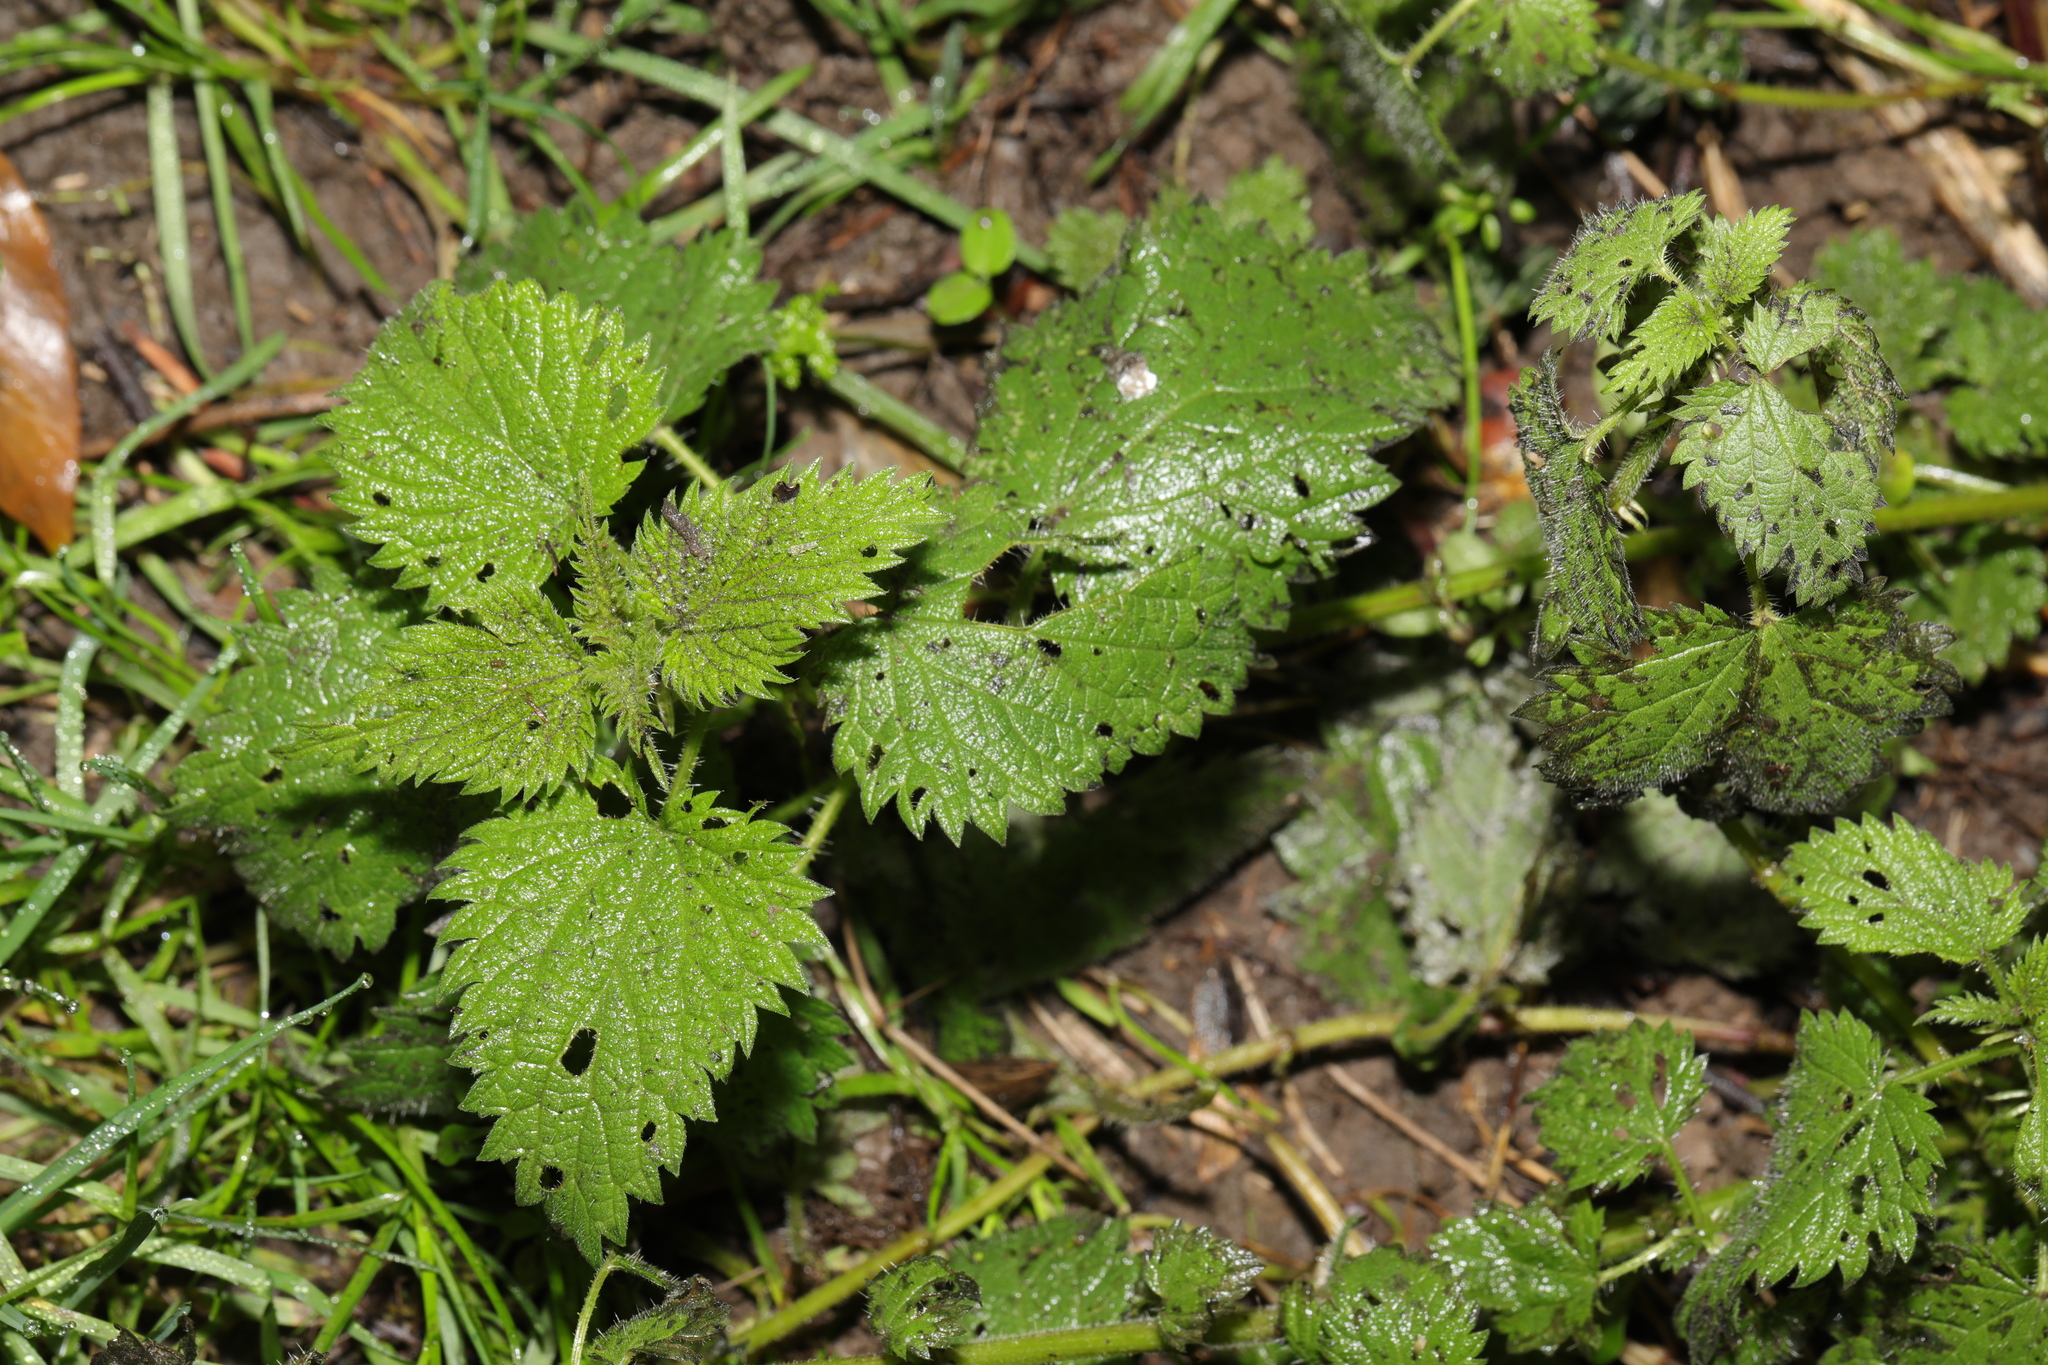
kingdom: Plantae
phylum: Tracheophyta
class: Magnoliopsida
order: Rosales
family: Urticaceae
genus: Urtica
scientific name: Urtica dioica
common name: Common nettle
